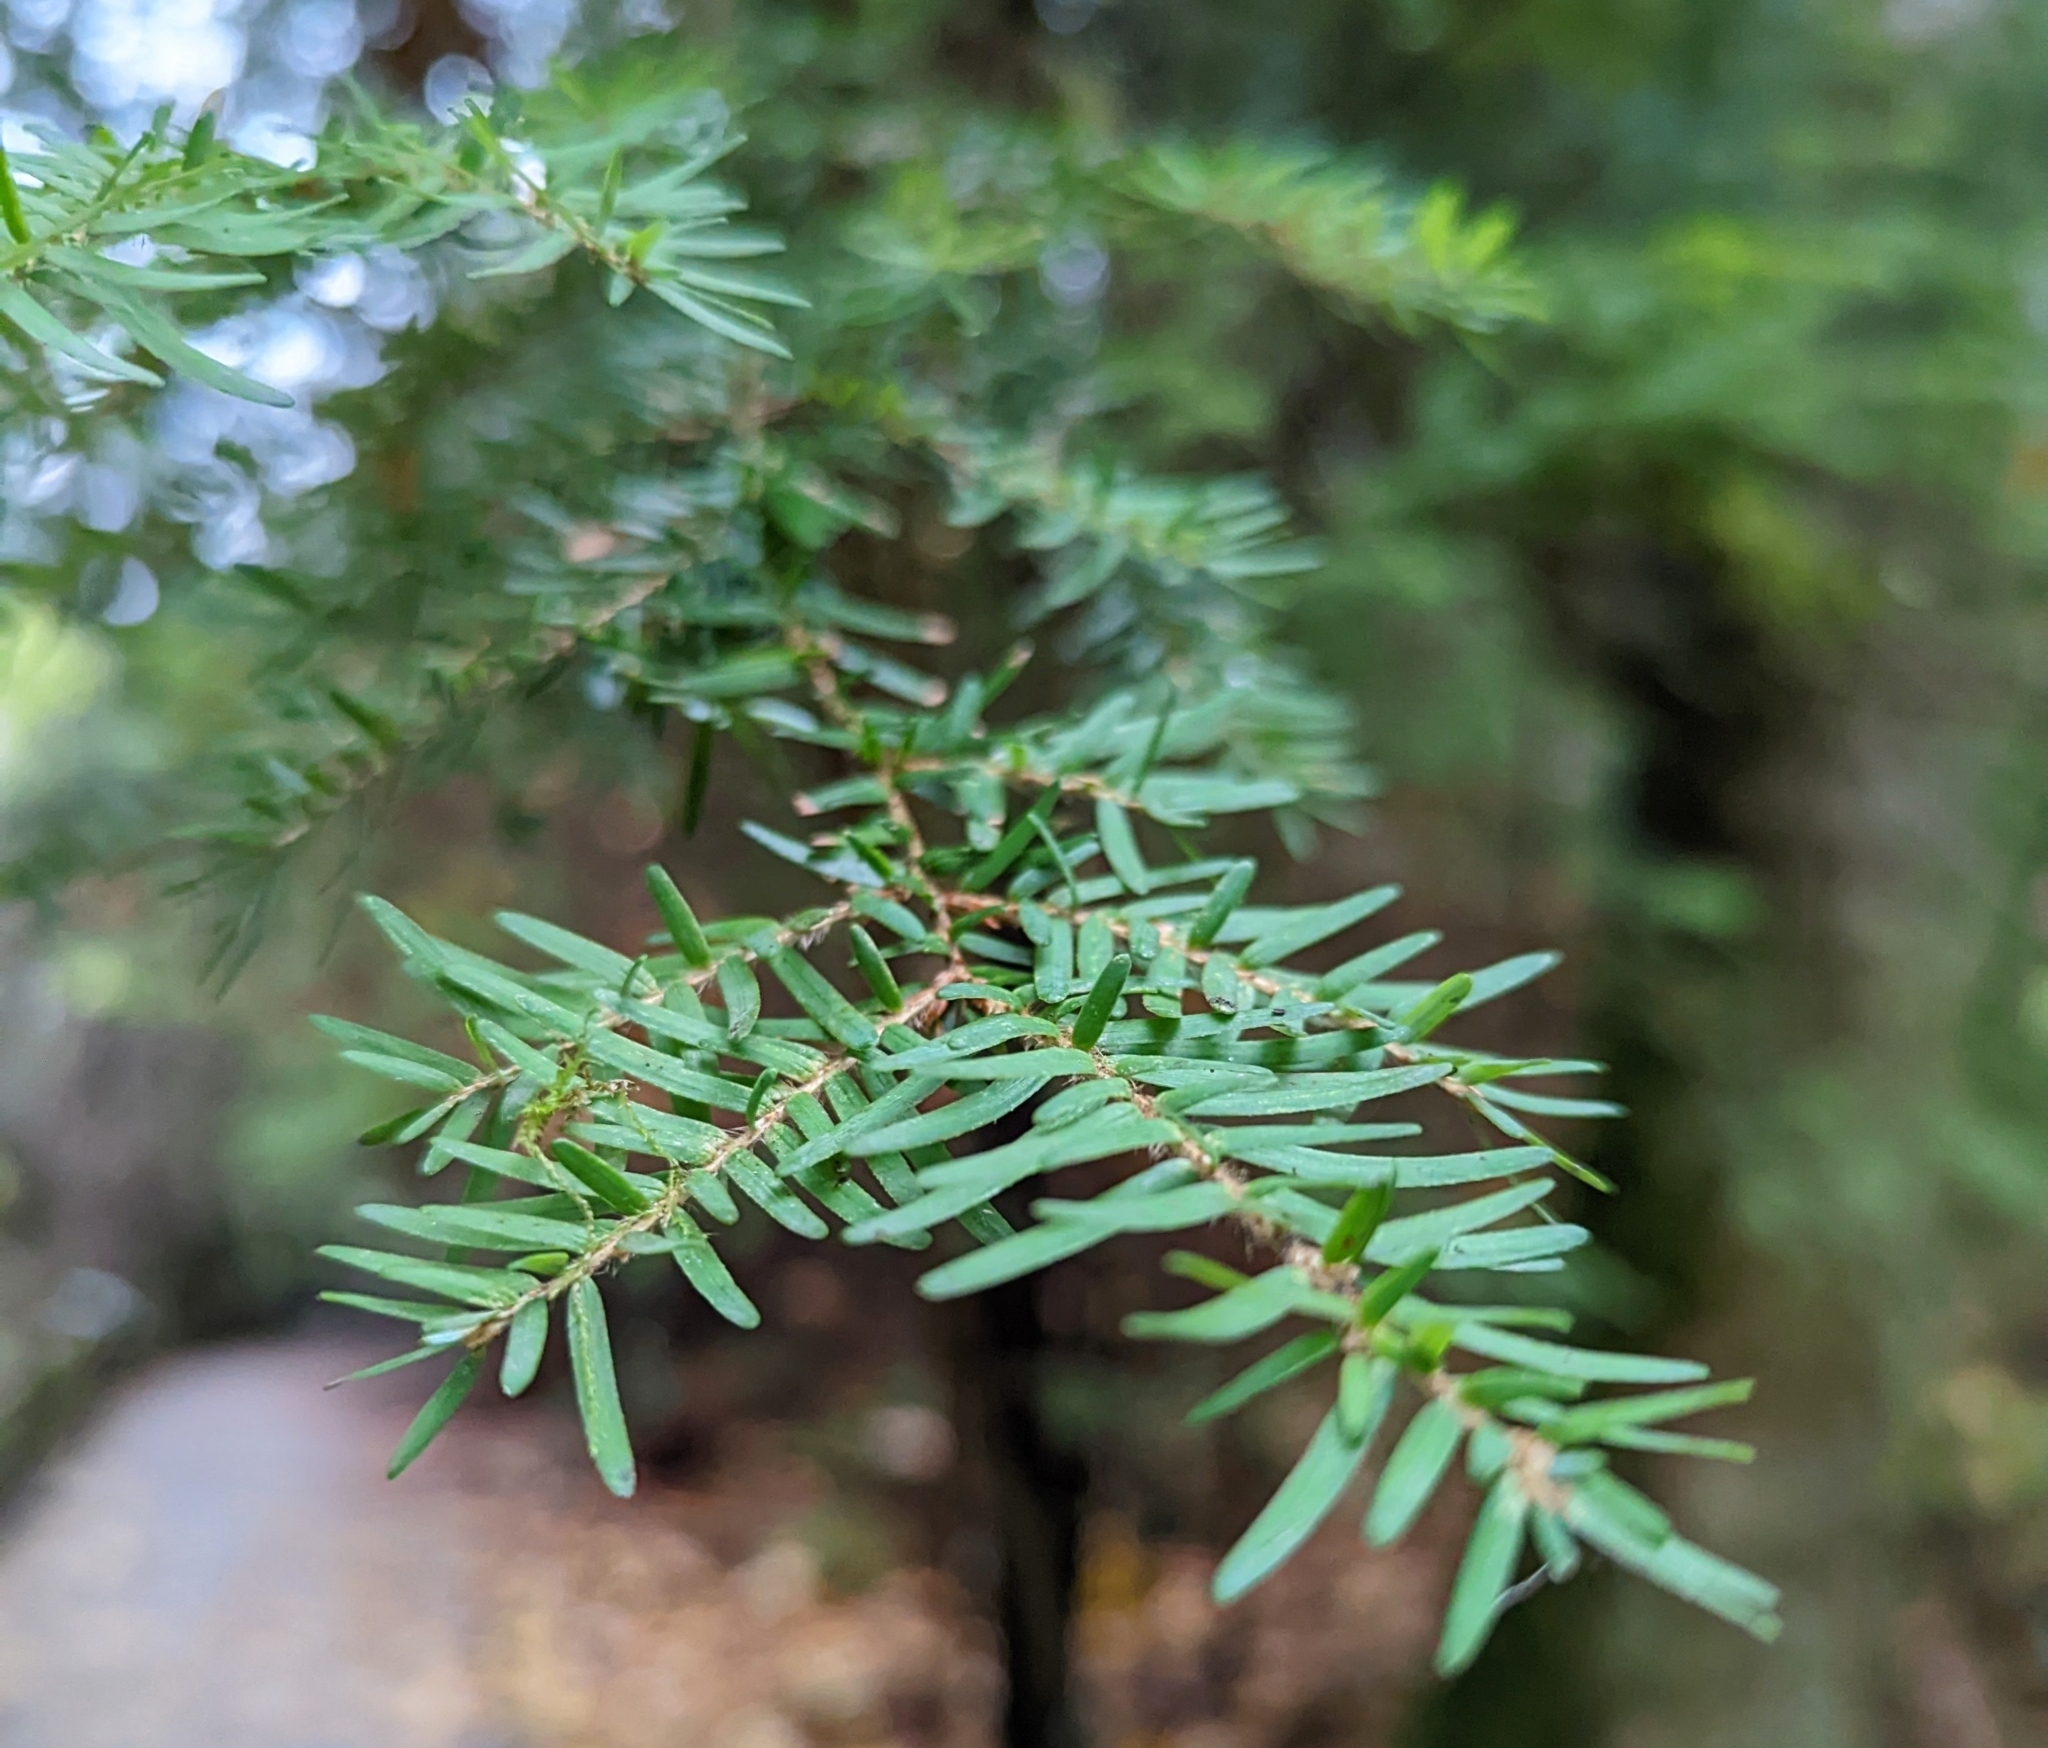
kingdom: Plantae
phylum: Tracheophyta
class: Pinopsida
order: Pinales
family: Pinaceae
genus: Tsuga
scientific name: Tsuga heterophylla
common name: Western hemlock
